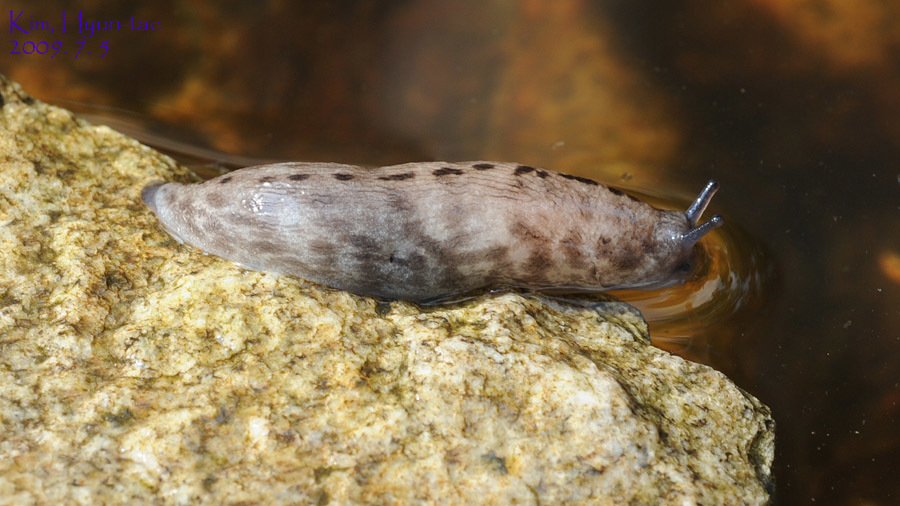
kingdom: Animalia
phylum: Mollusca
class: Gastropoda
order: Stylommatophora
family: Philomycidae
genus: Meghimatium
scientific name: Meghimatium fruhstorferi
